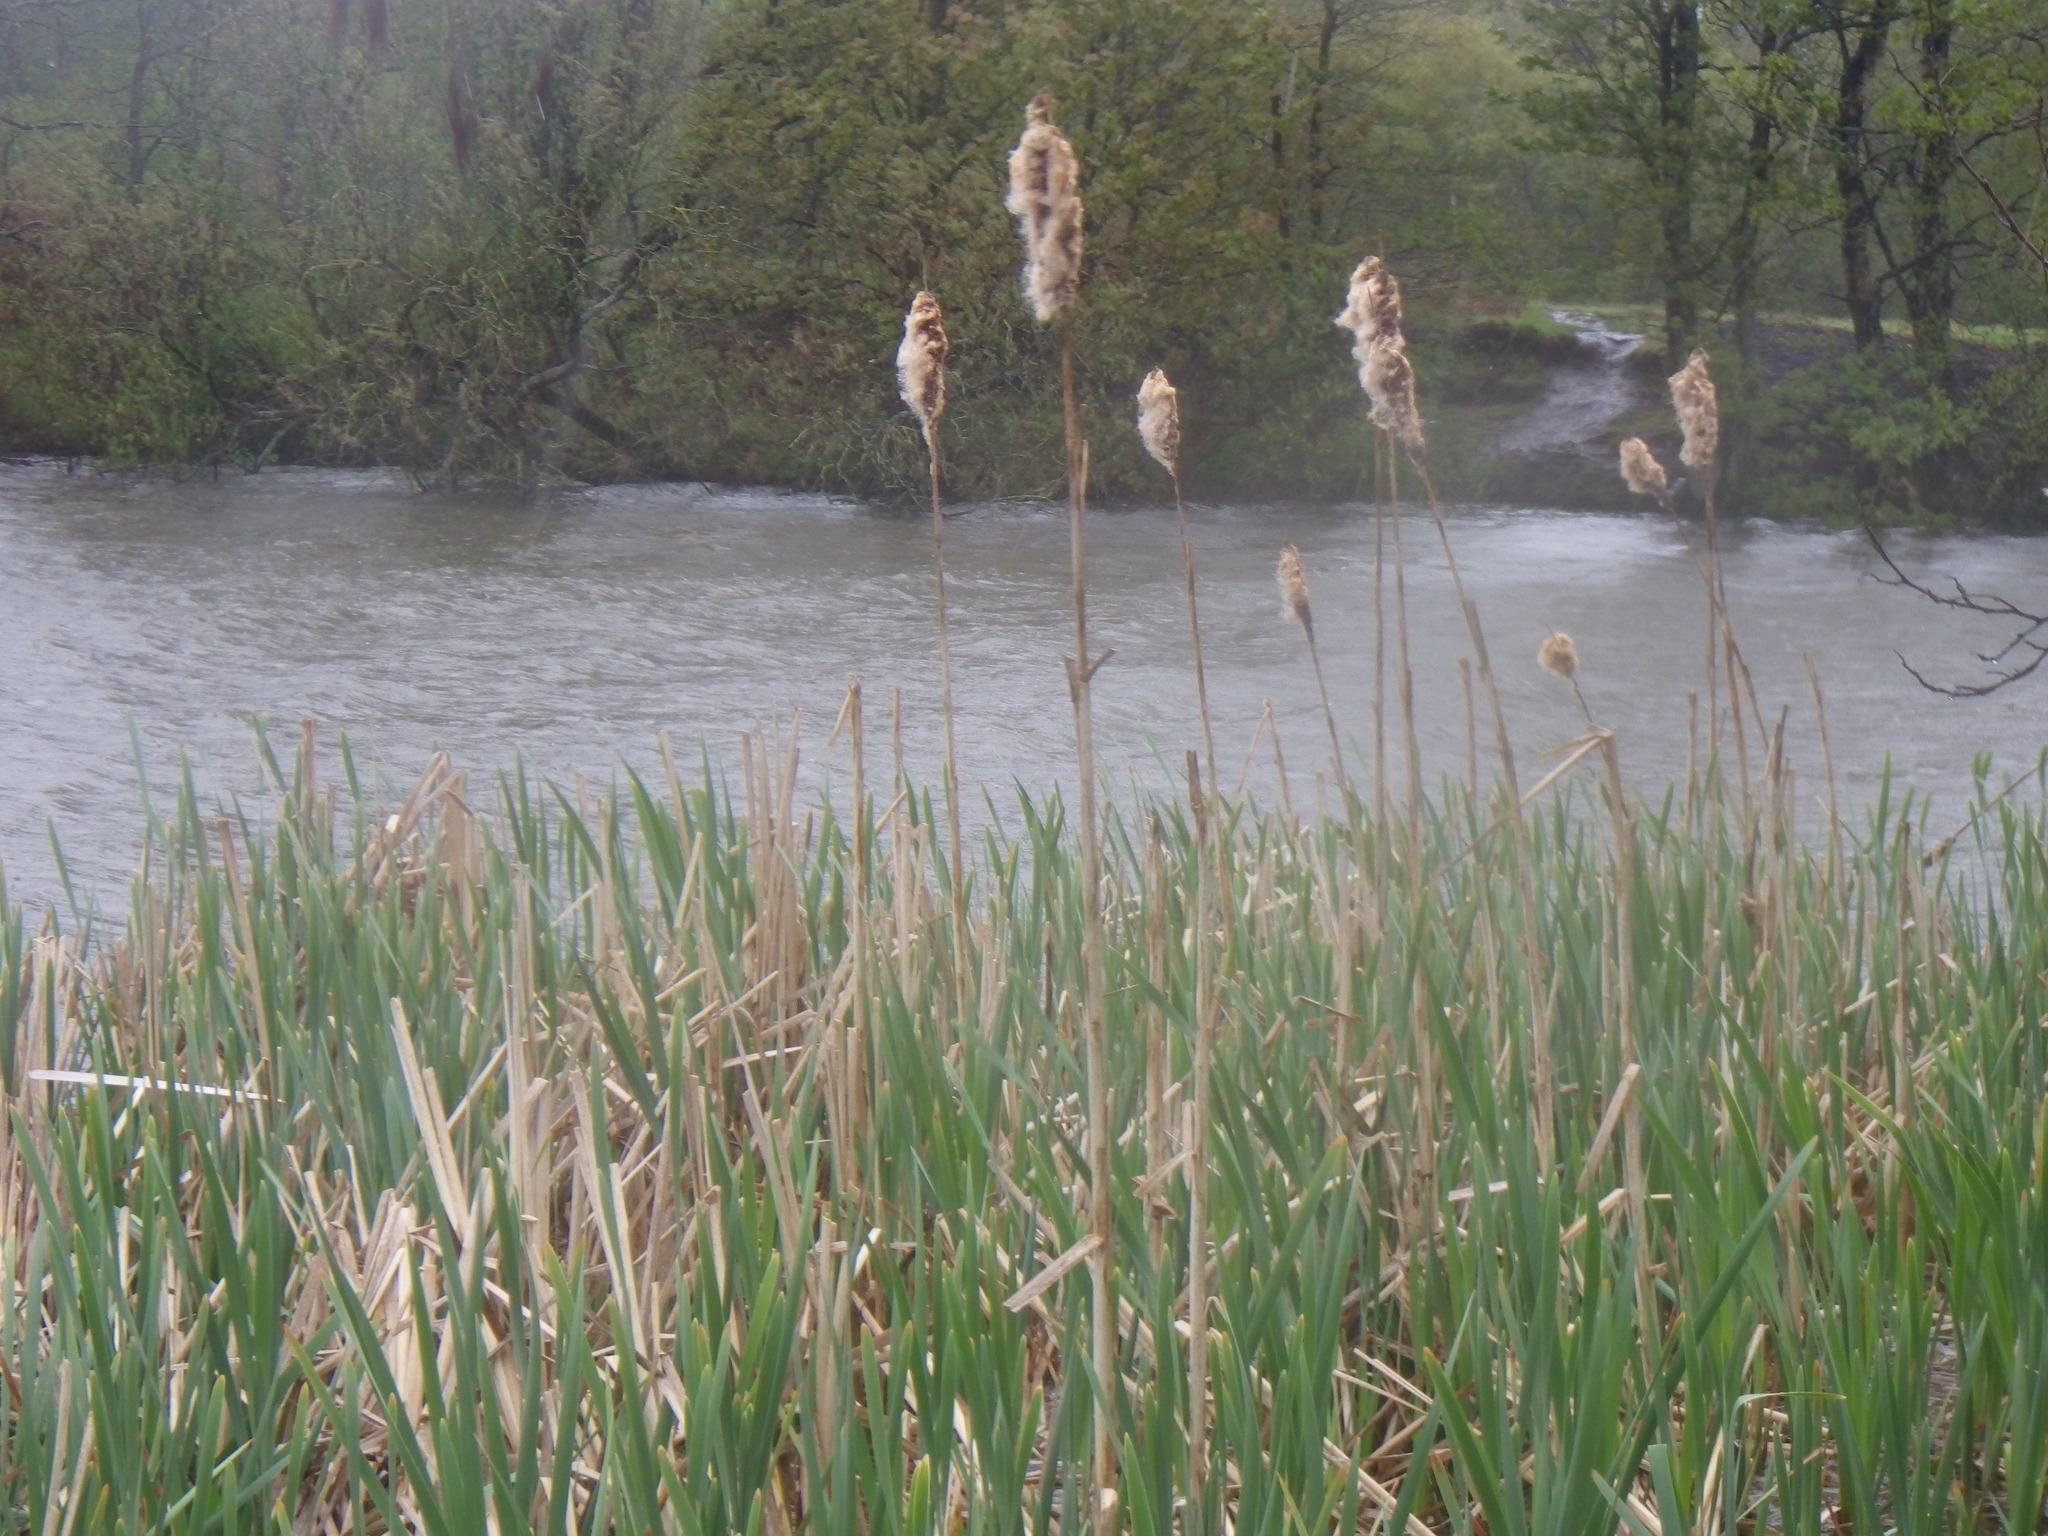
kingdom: Plantae
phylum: Tracheophyta
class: Liliopsida
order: Poales
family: Typhaceae
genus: Typha
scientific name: Typha latifolia
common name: Broadleaf cattail
